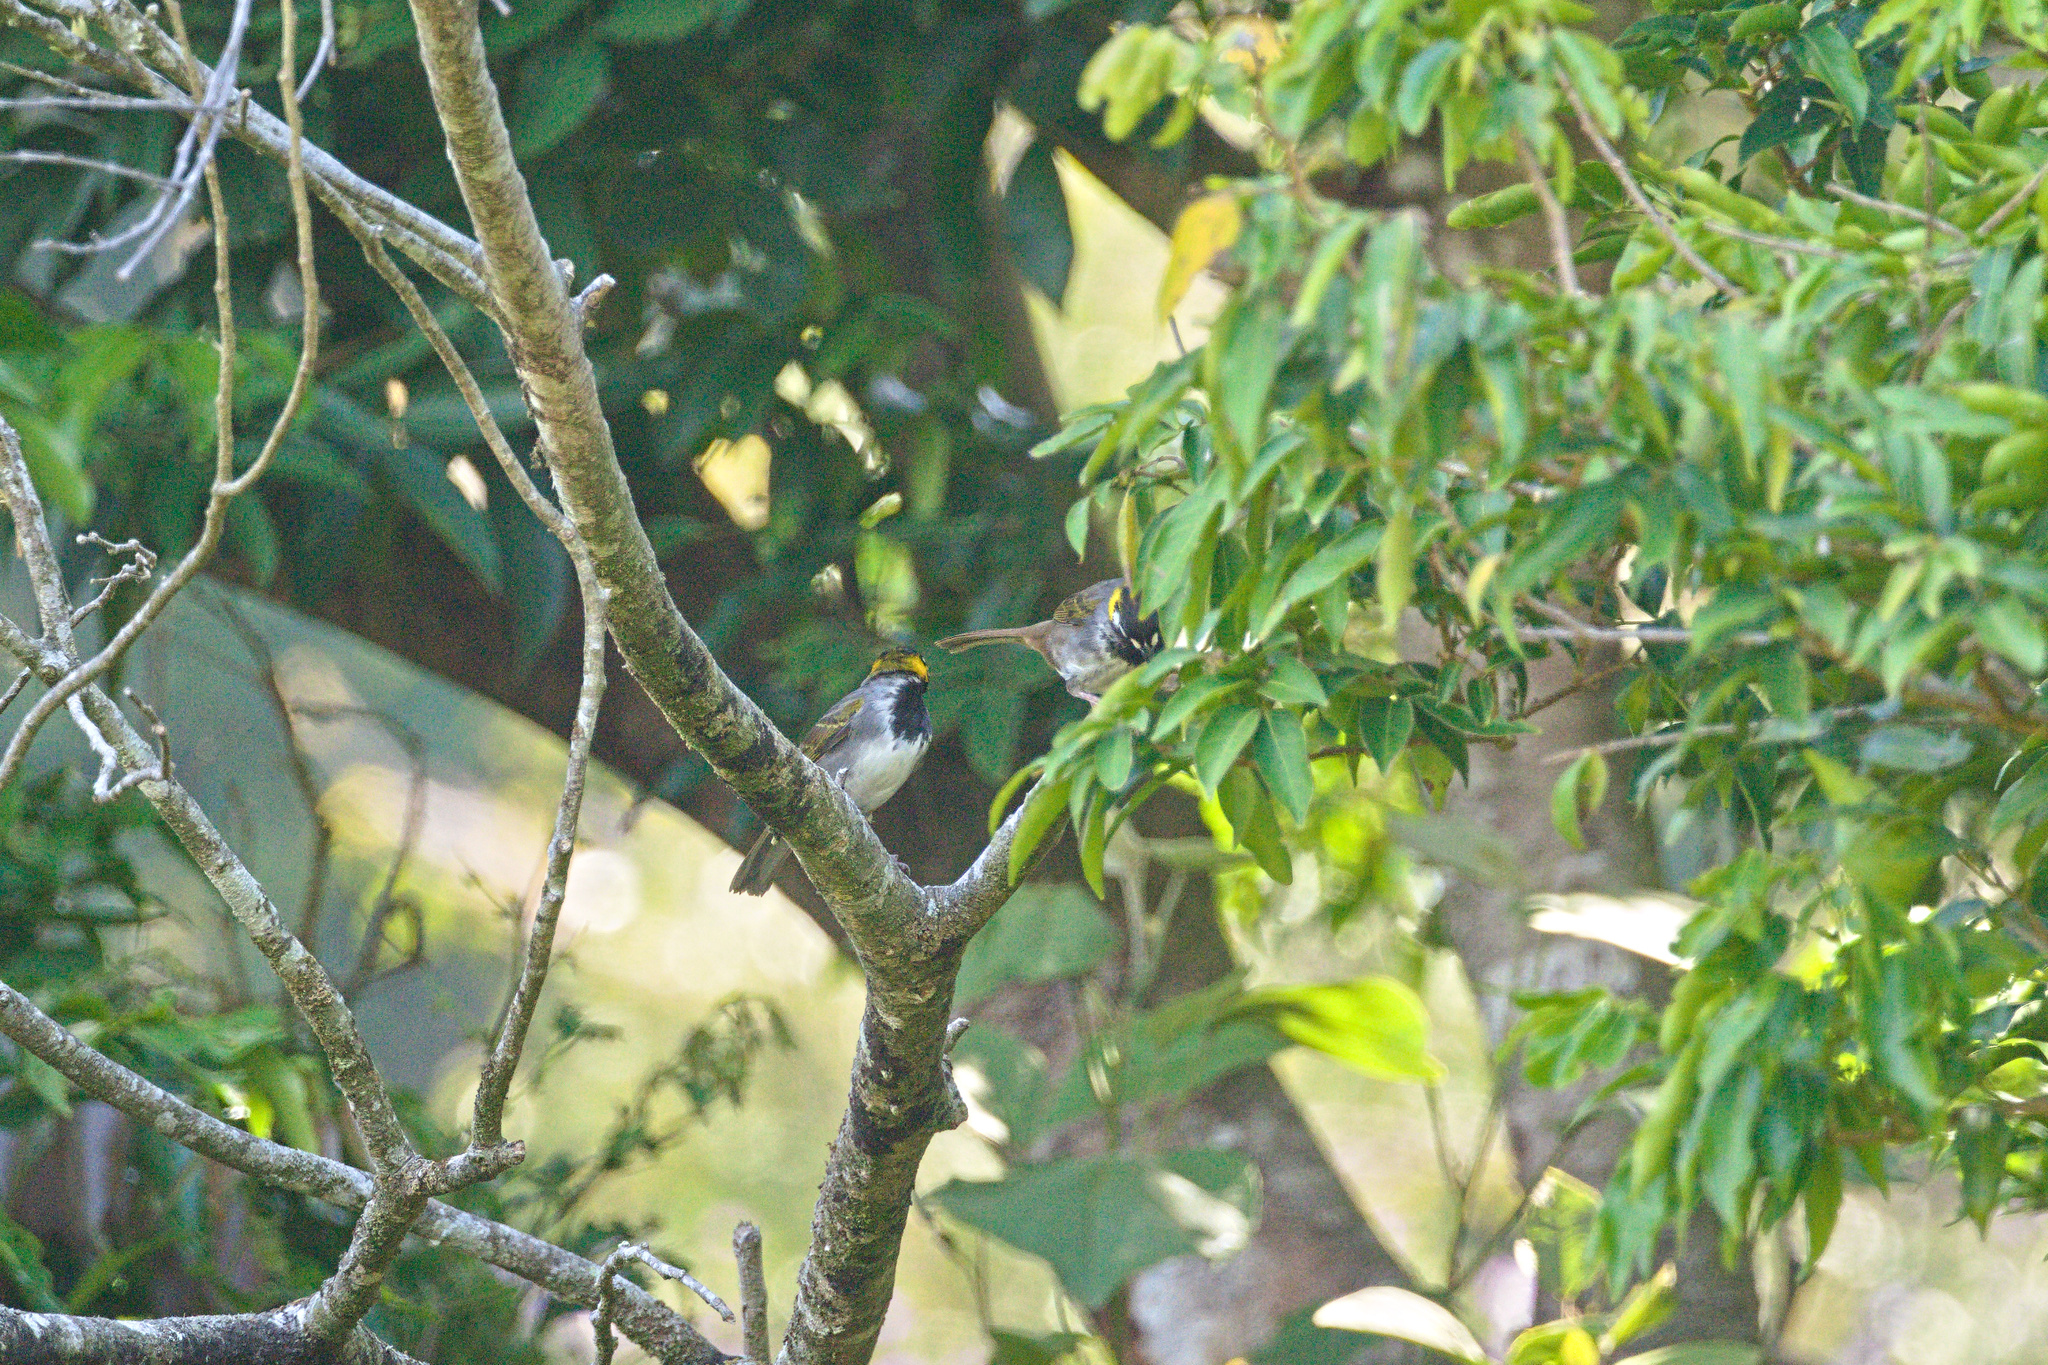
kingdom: Animalia
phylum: Chordata
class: Aves
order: Passeriformes
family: Passerellidae
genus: Melozone
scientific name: Melozone leucotis
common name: White-eared ground-sparrow
